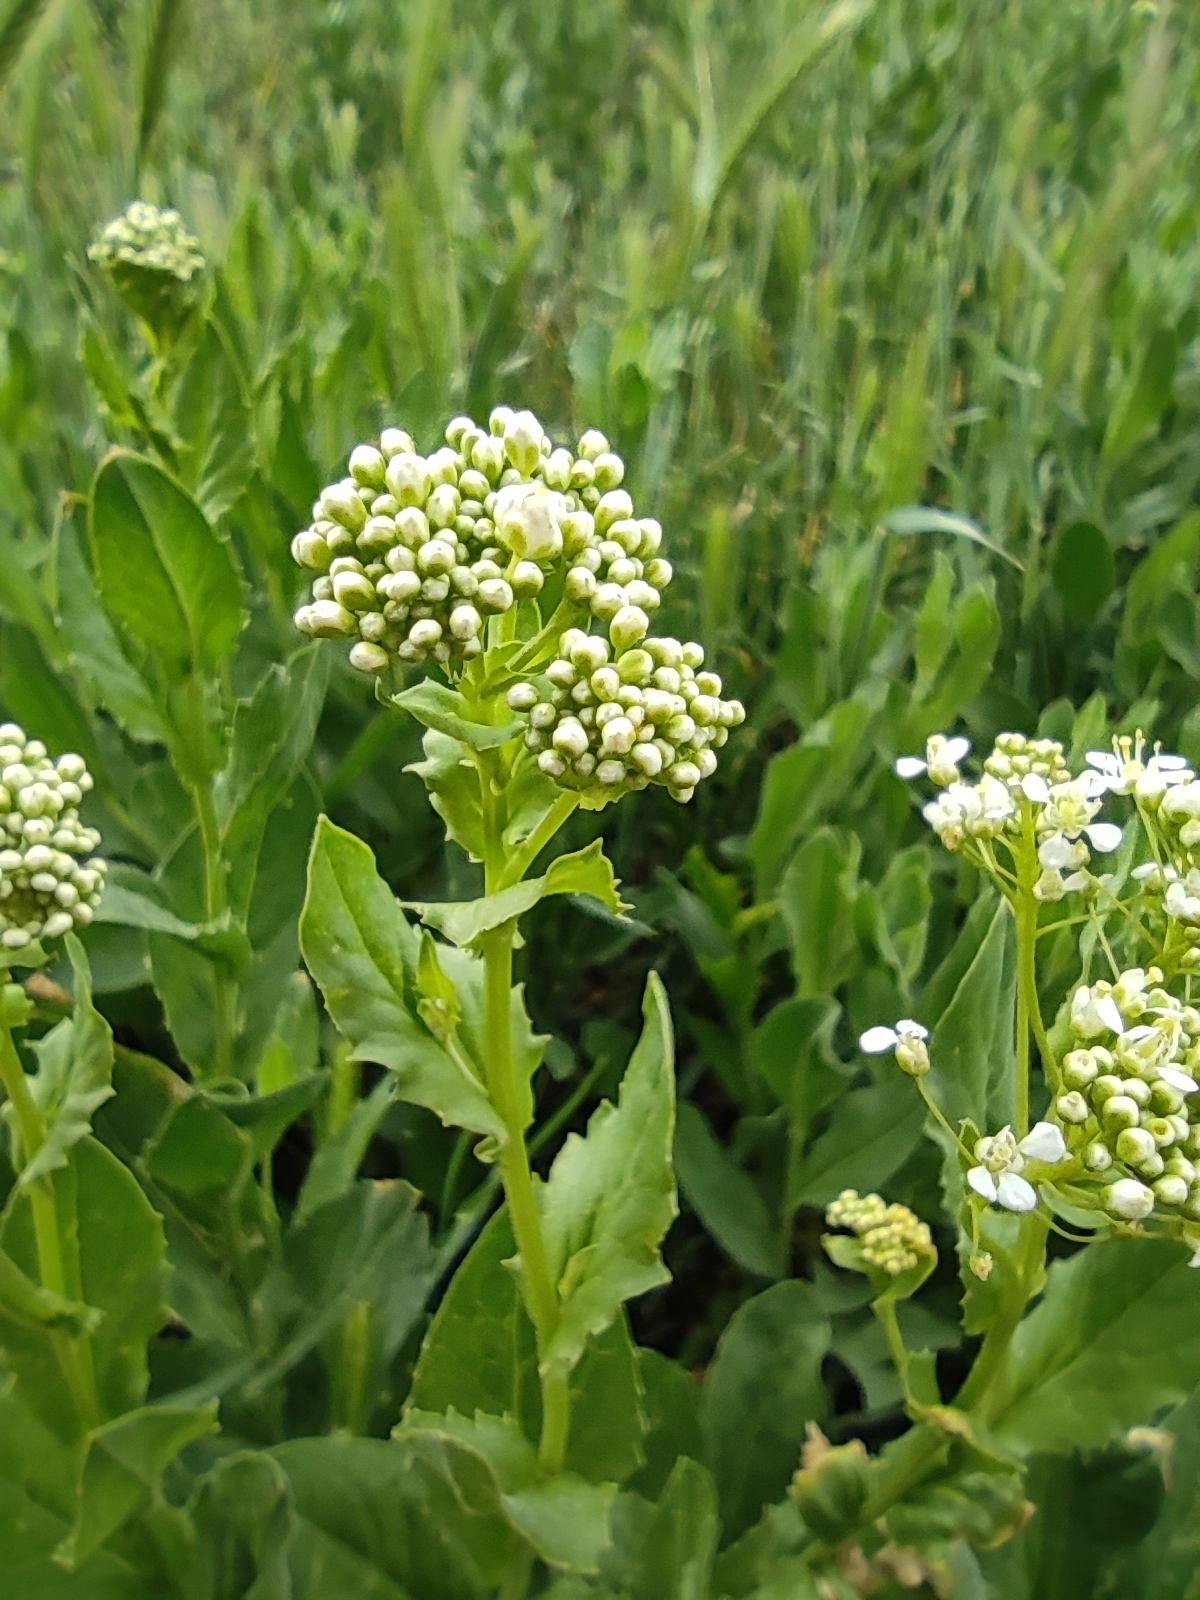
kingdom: Plantae
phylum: Tracheophyta
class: Magnoliopsida
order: Brassicales
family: Brassicaceae
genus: Lepidium
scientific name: Lepidium draba
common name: Hoary cress
